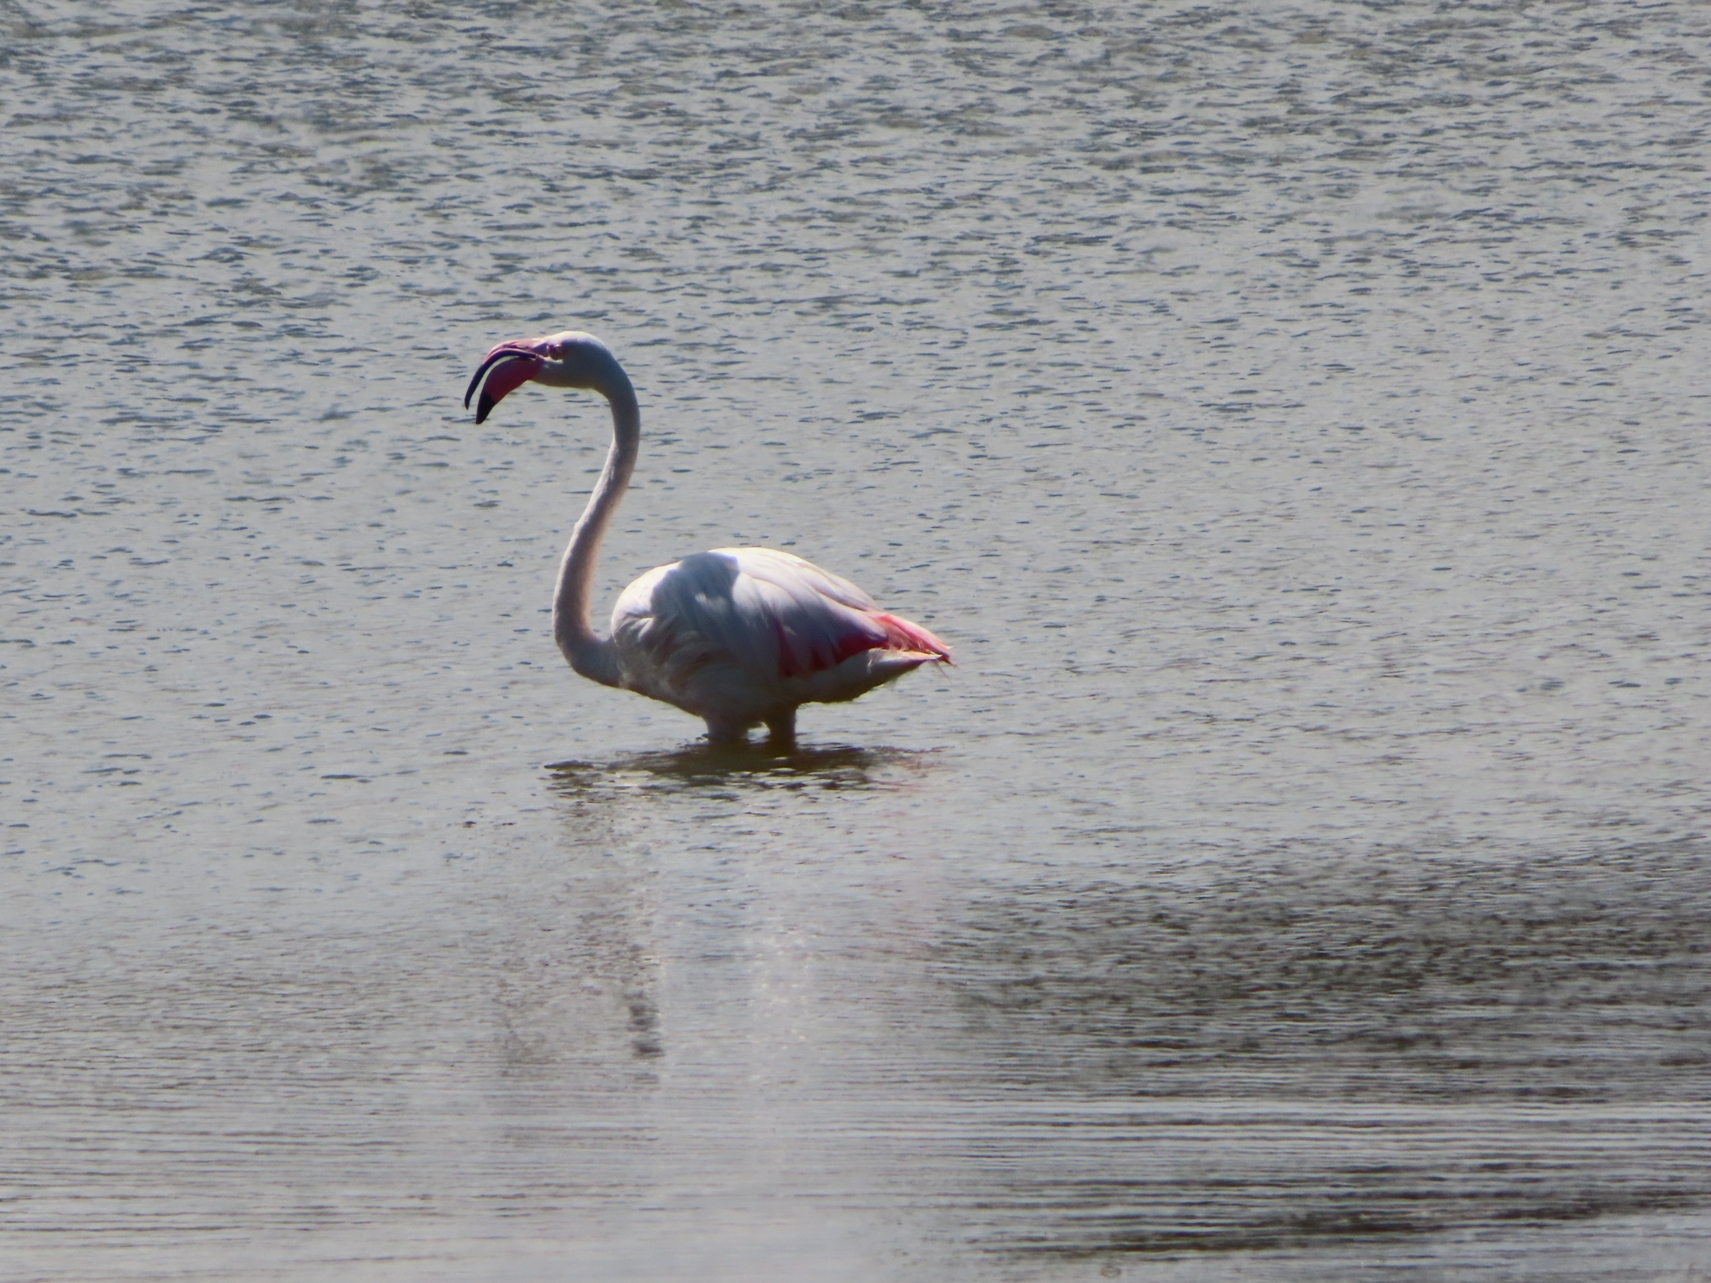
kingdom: Animalia
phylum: Chordata
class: Aves
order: Phoenicopteriformes
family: Phoenicopteridae
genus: Phoenicopterus
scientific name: Phoenicopterus roseus
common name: Greater flamingo
